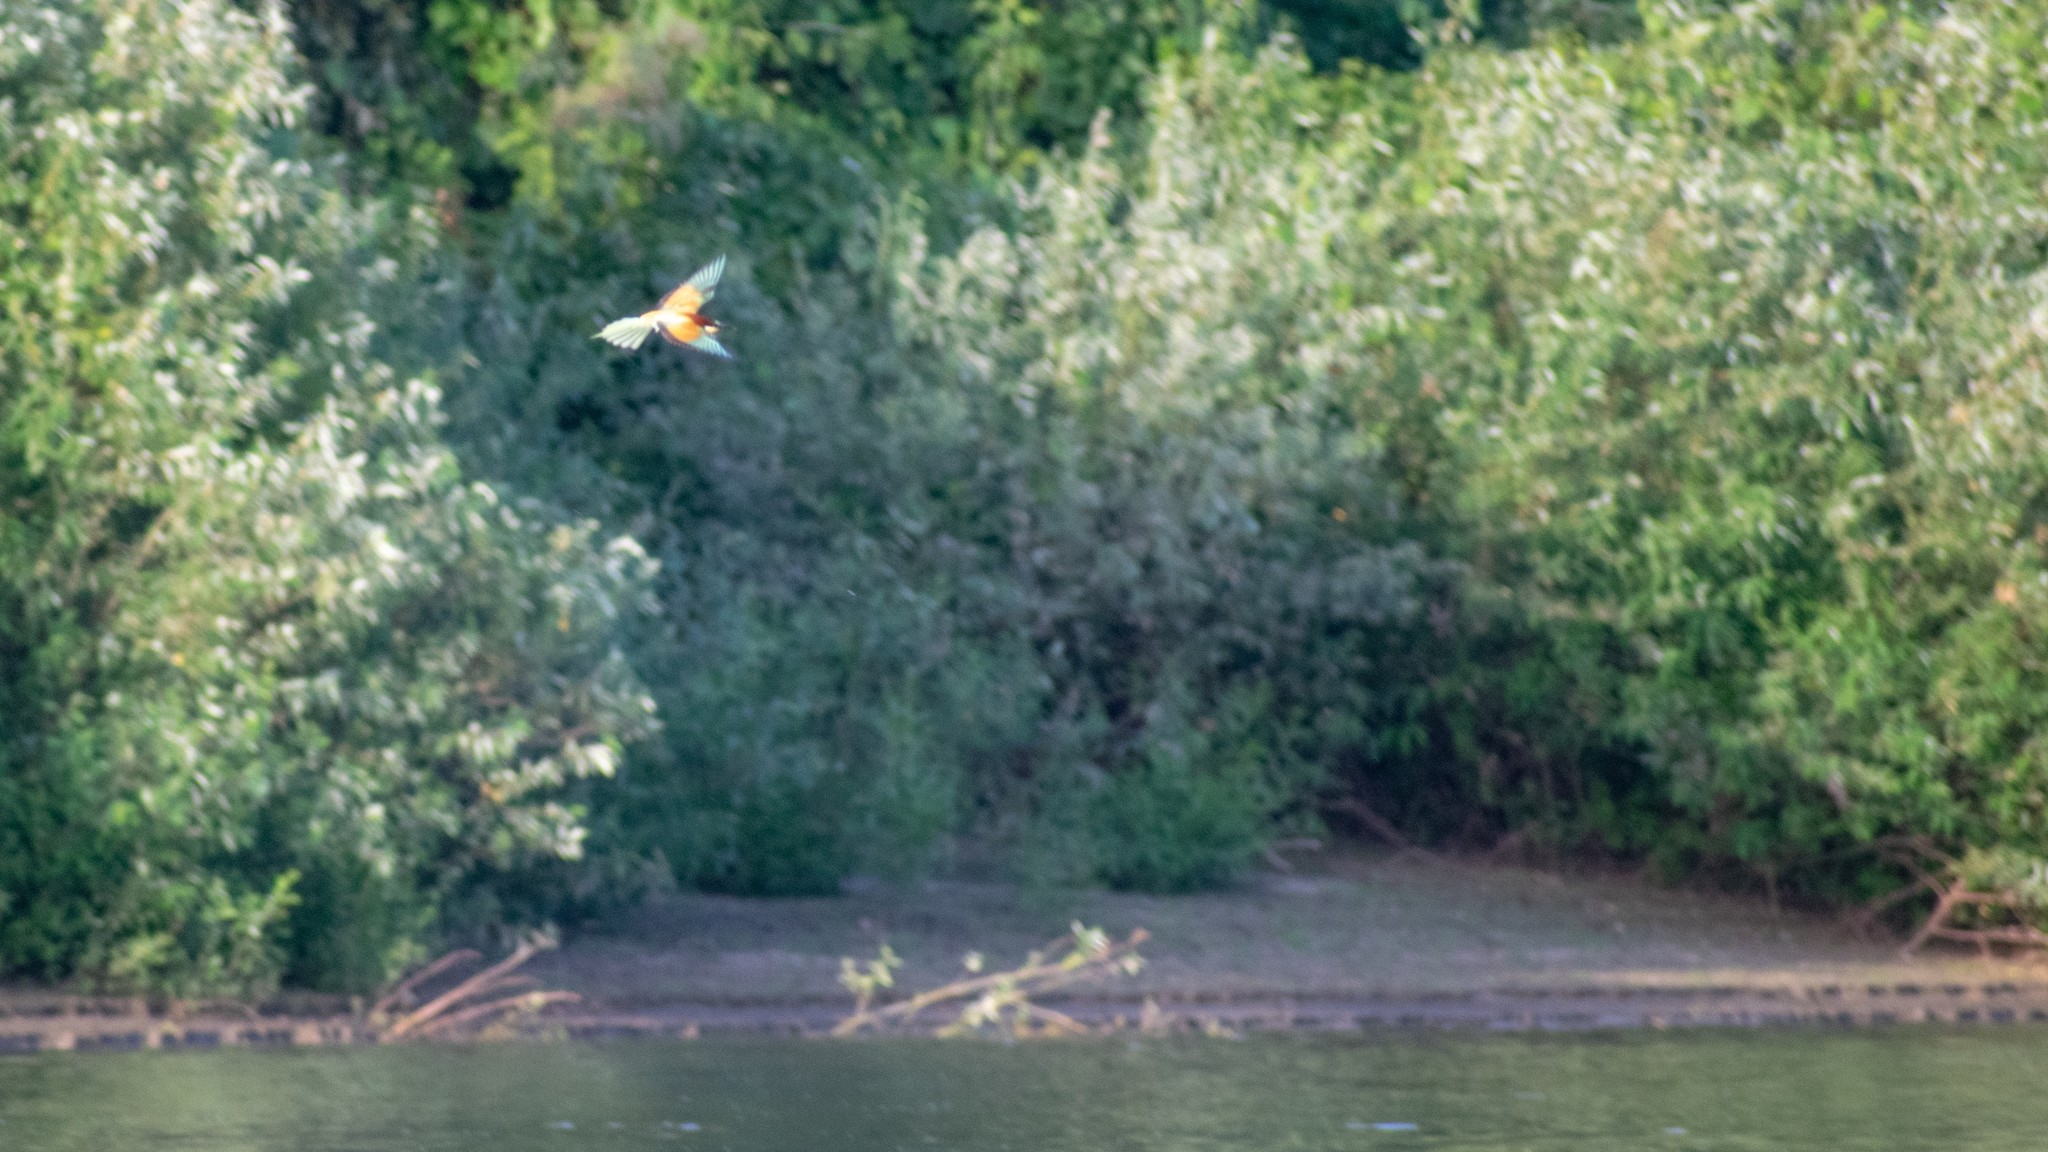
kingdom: Animalia
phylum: Chordata
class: Aves
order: Coraciiformes
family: Meropidae
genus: Merops
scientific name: Merops apiaster
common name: European bee-eater
